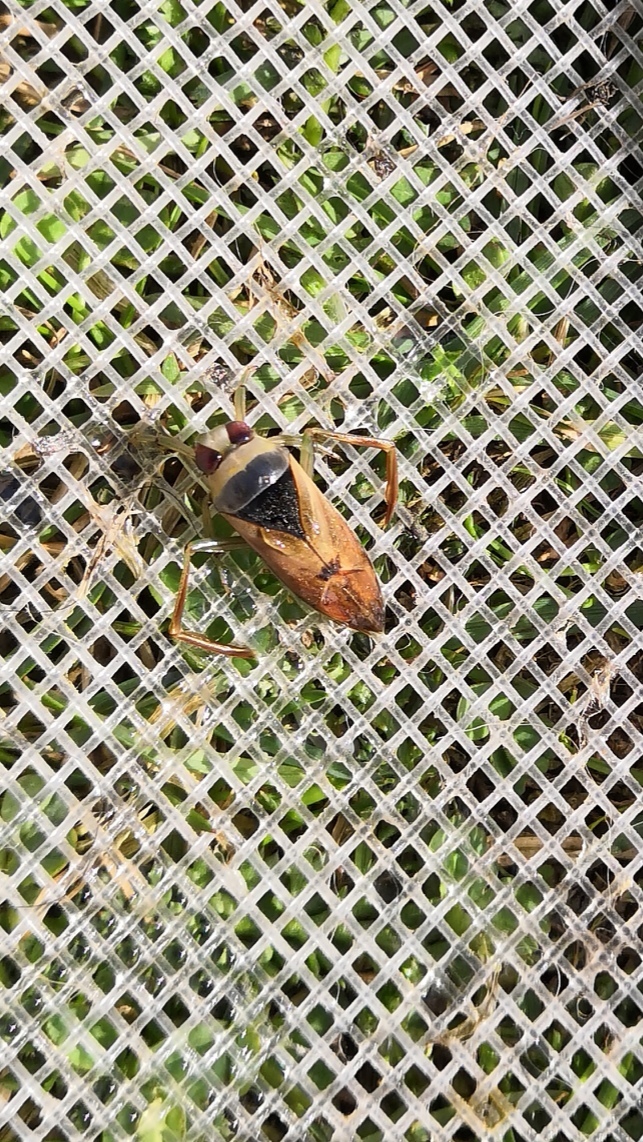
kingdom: Animalia
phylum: Arthropoda
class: Insecta
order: Hemiptera
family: Notonectidae
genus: Notonecta
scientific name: Notonecta glauca
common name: Common water-boatman
